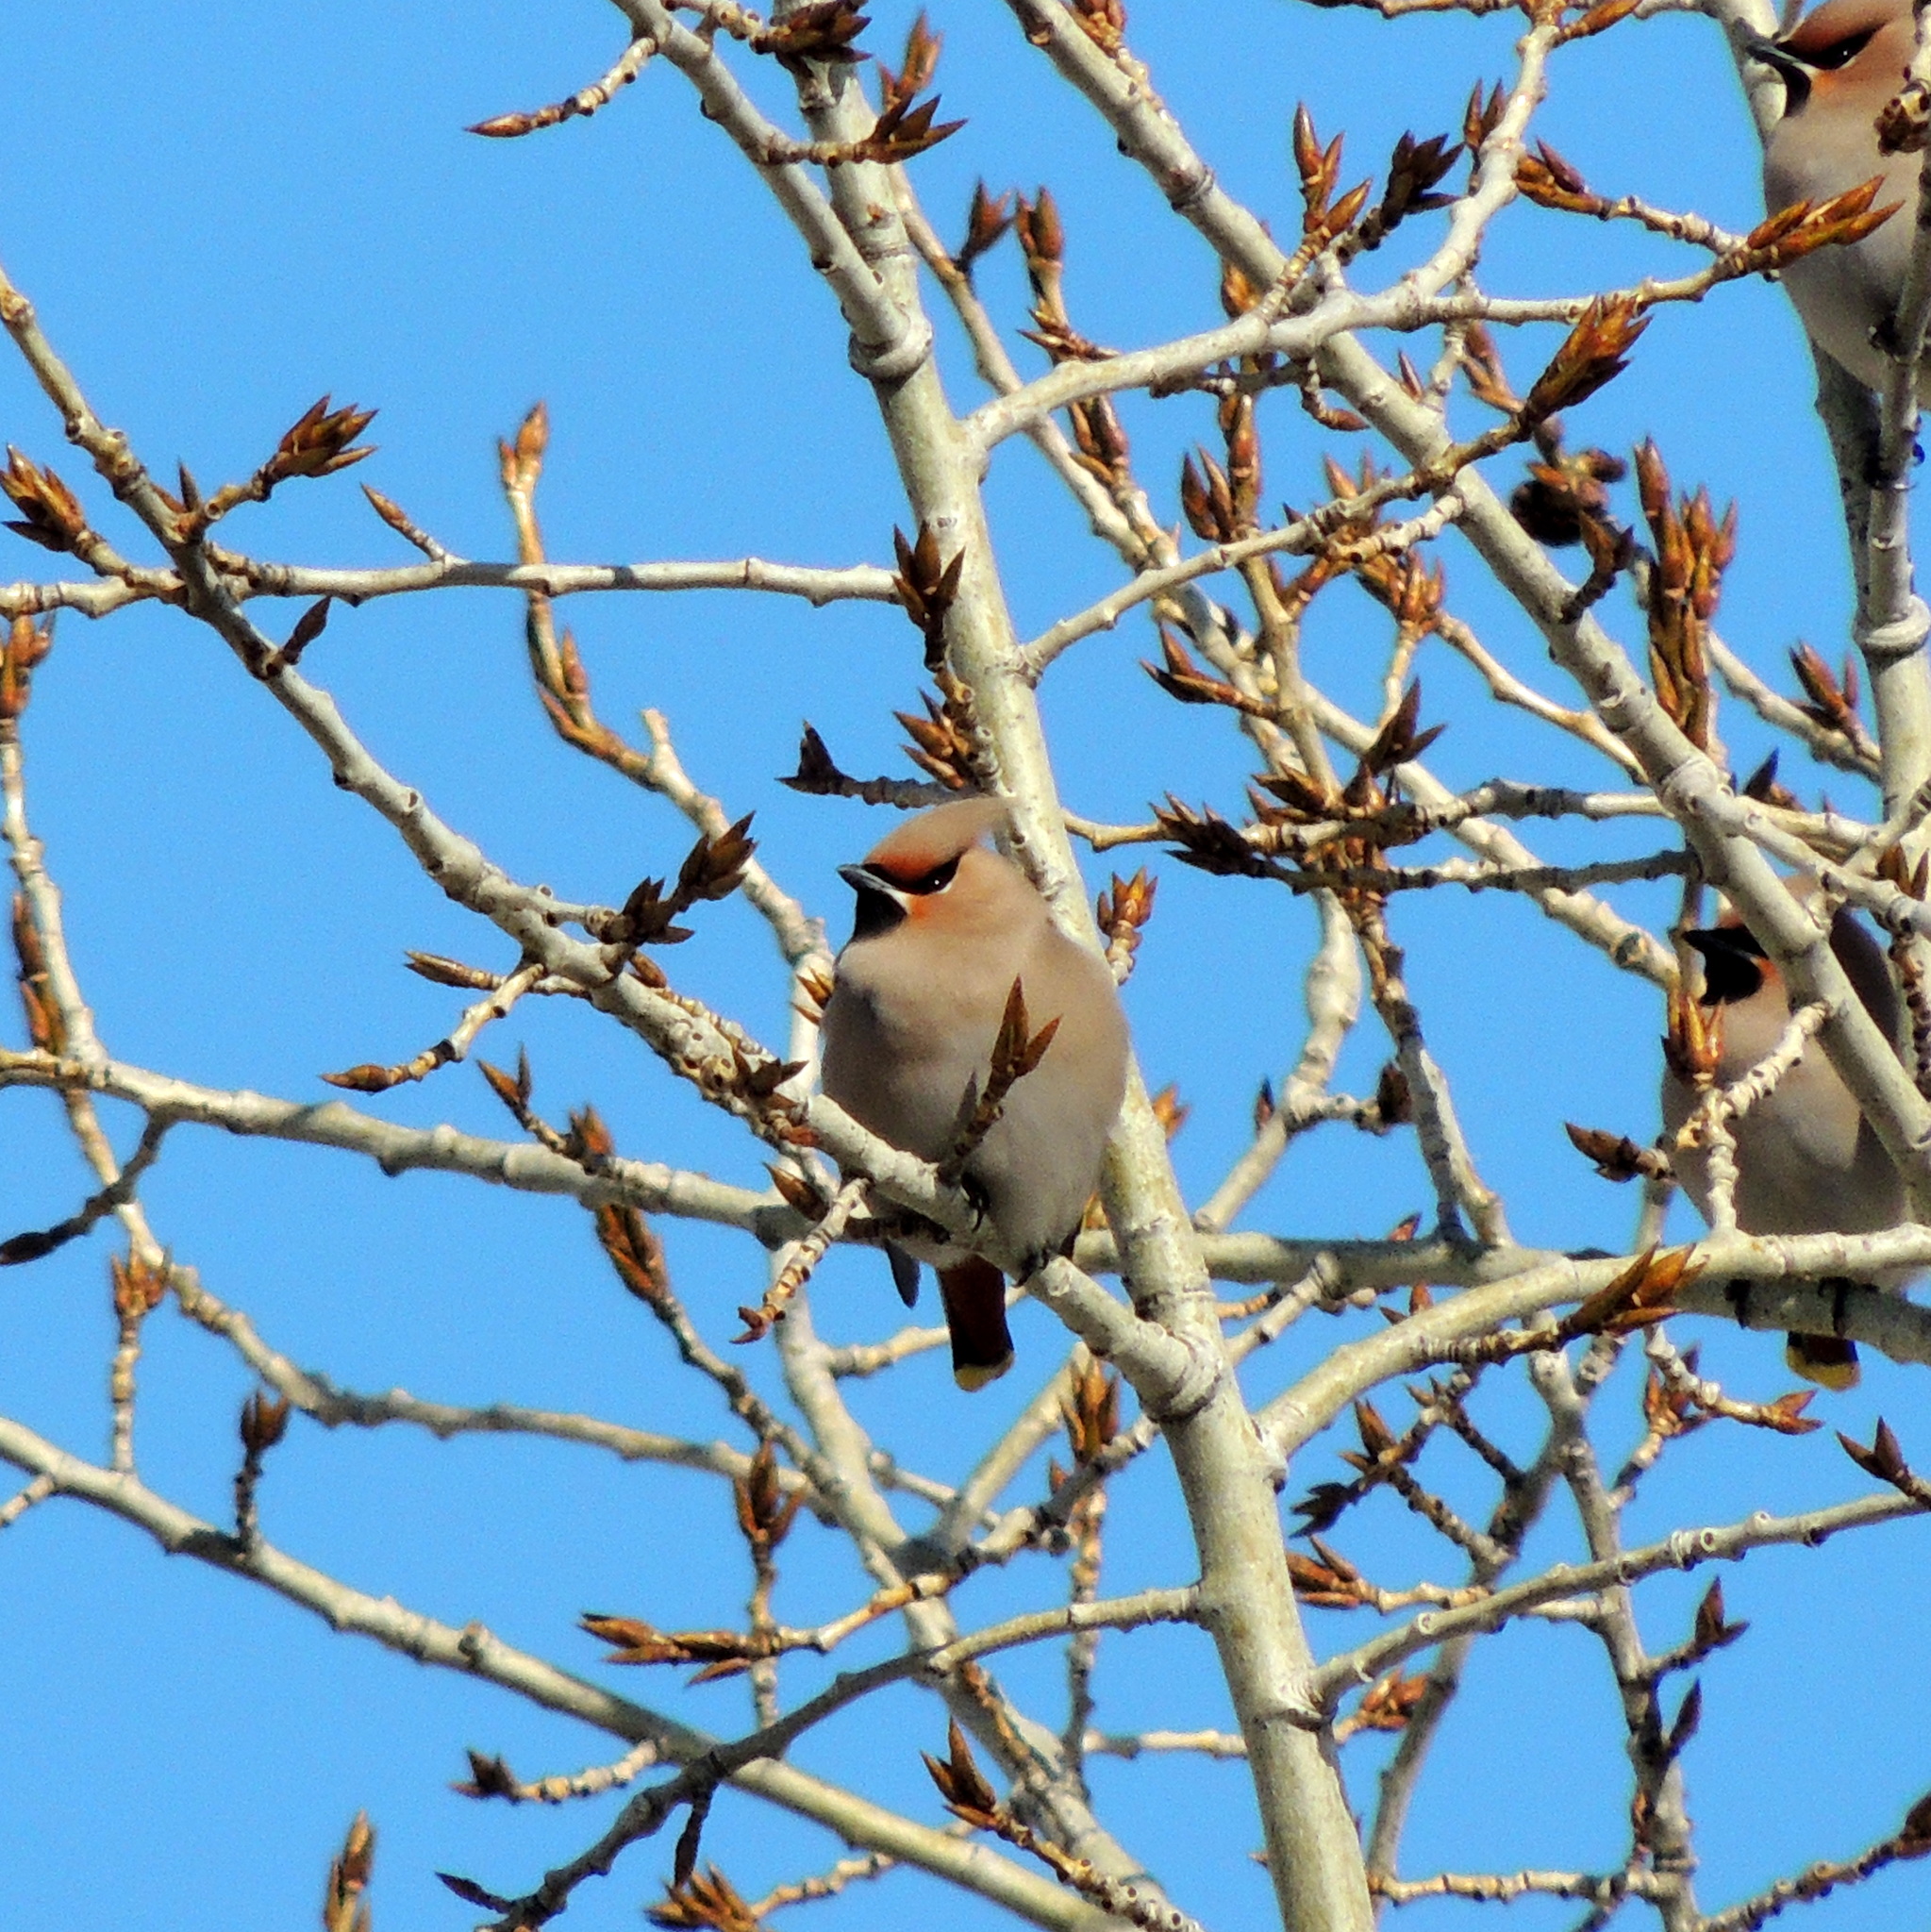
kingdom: Animalia
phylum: Chordata
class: Aves
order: Passeriformes
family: Bombycillidae
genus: Bombycilla
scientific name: Bombycilla garrulus
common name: Bohemian waxwing
